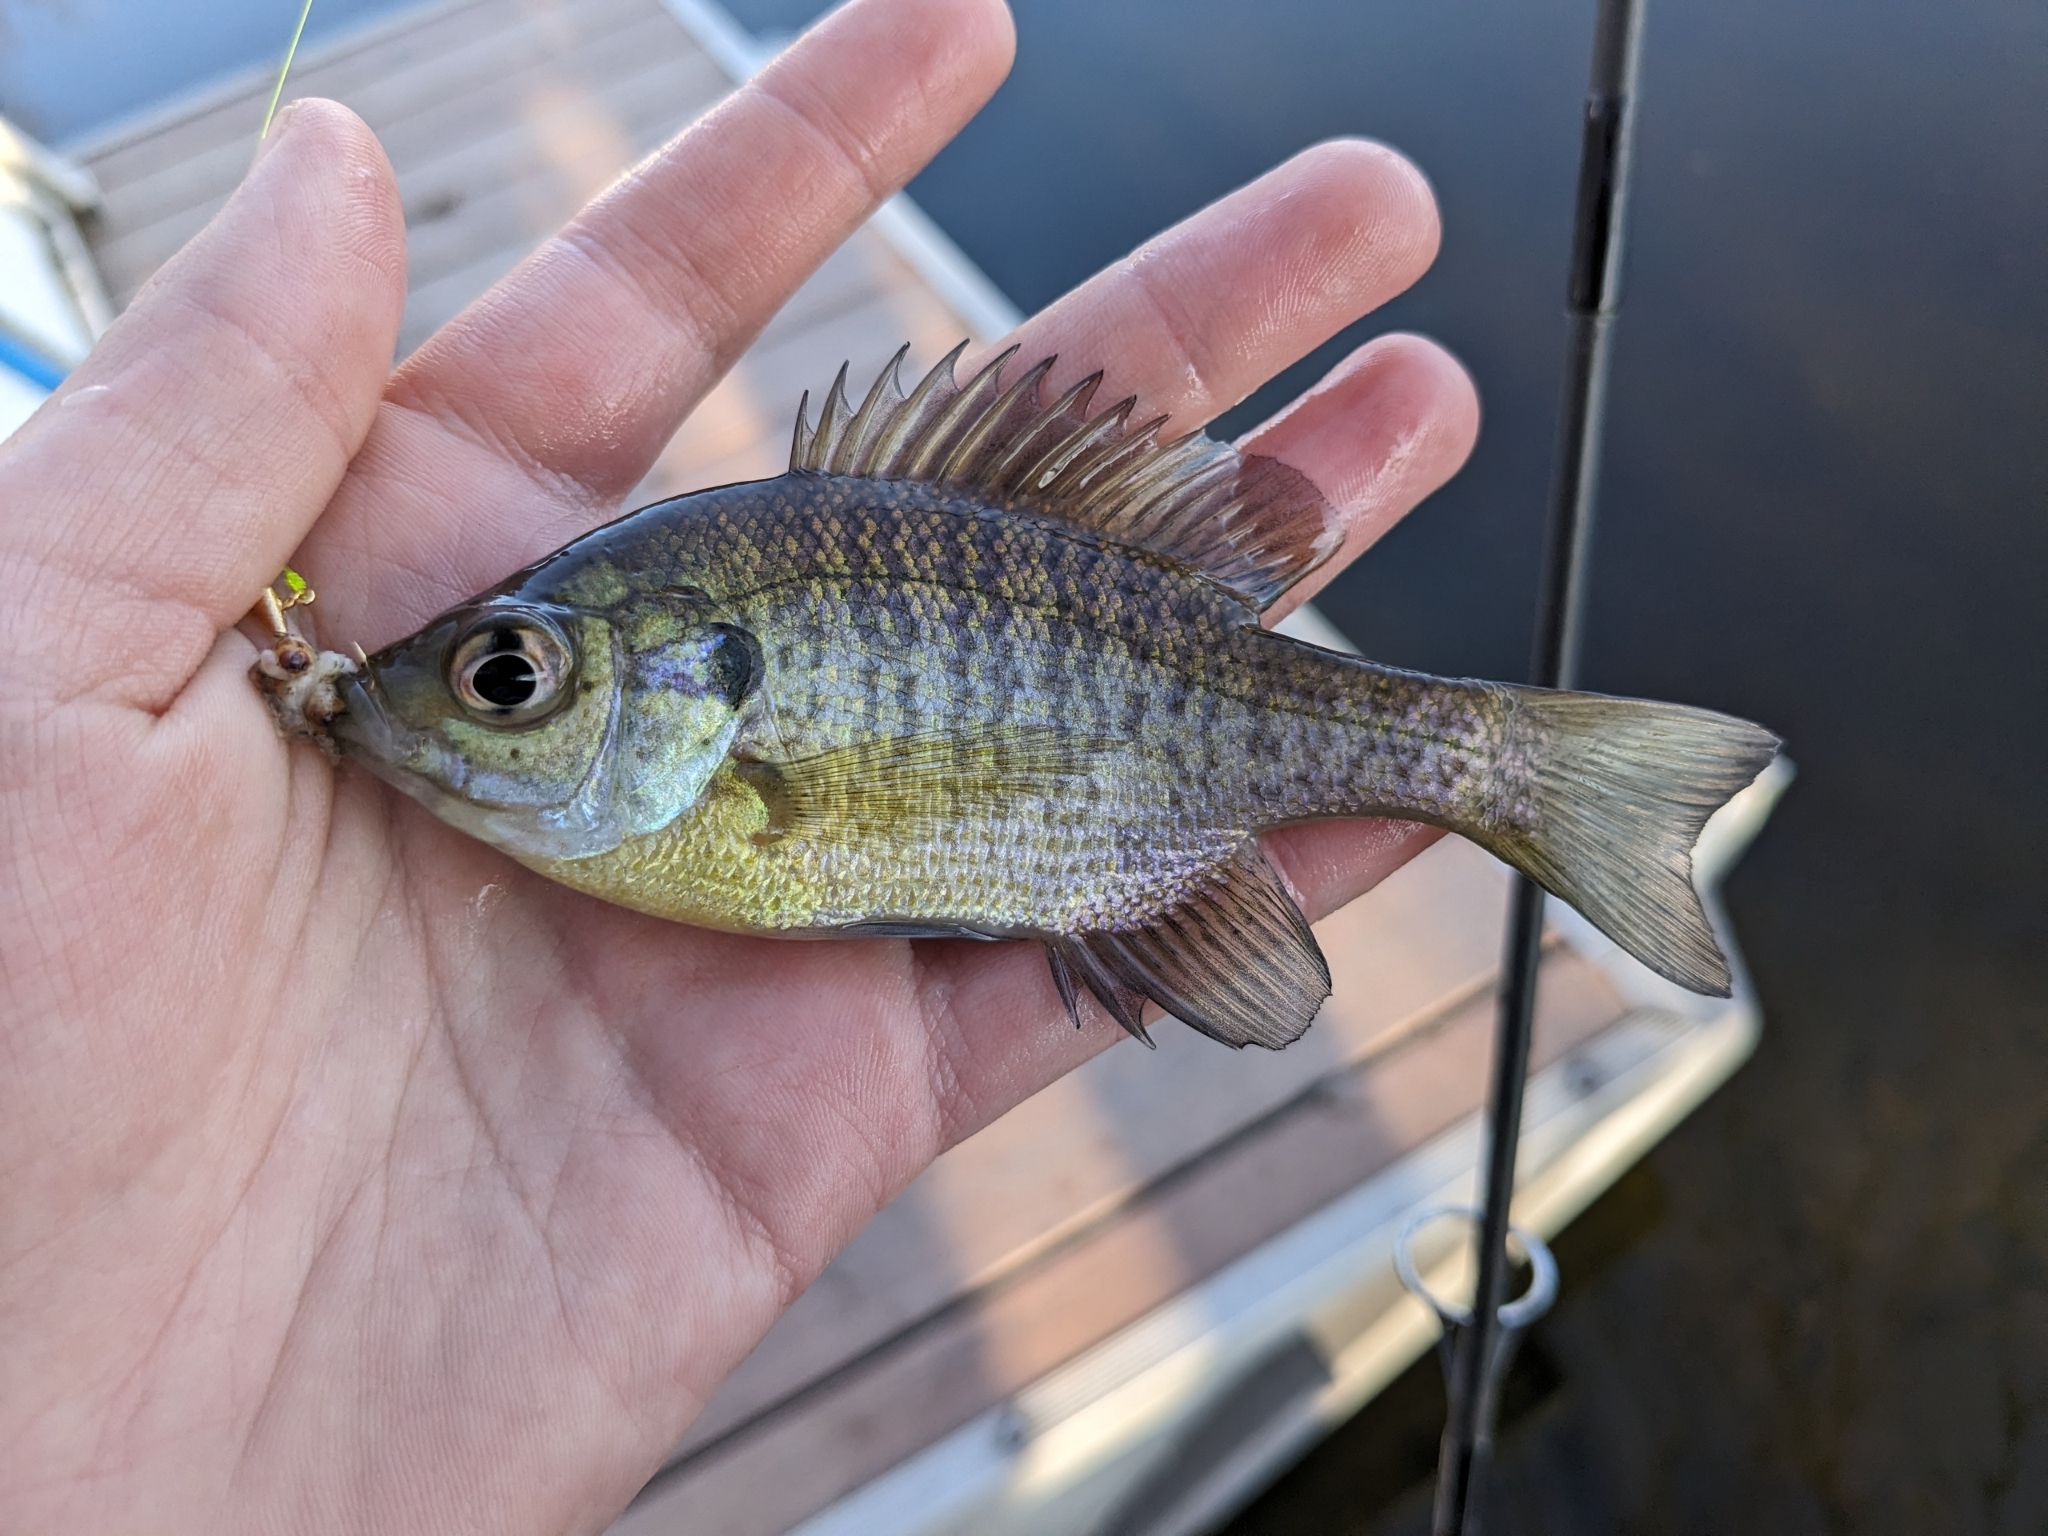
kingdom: Animalia
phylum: Chordata
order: Perciformes
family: Centrarchidae
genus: Lepomis
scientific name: Lepomis macrochirus
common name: Bluegill
